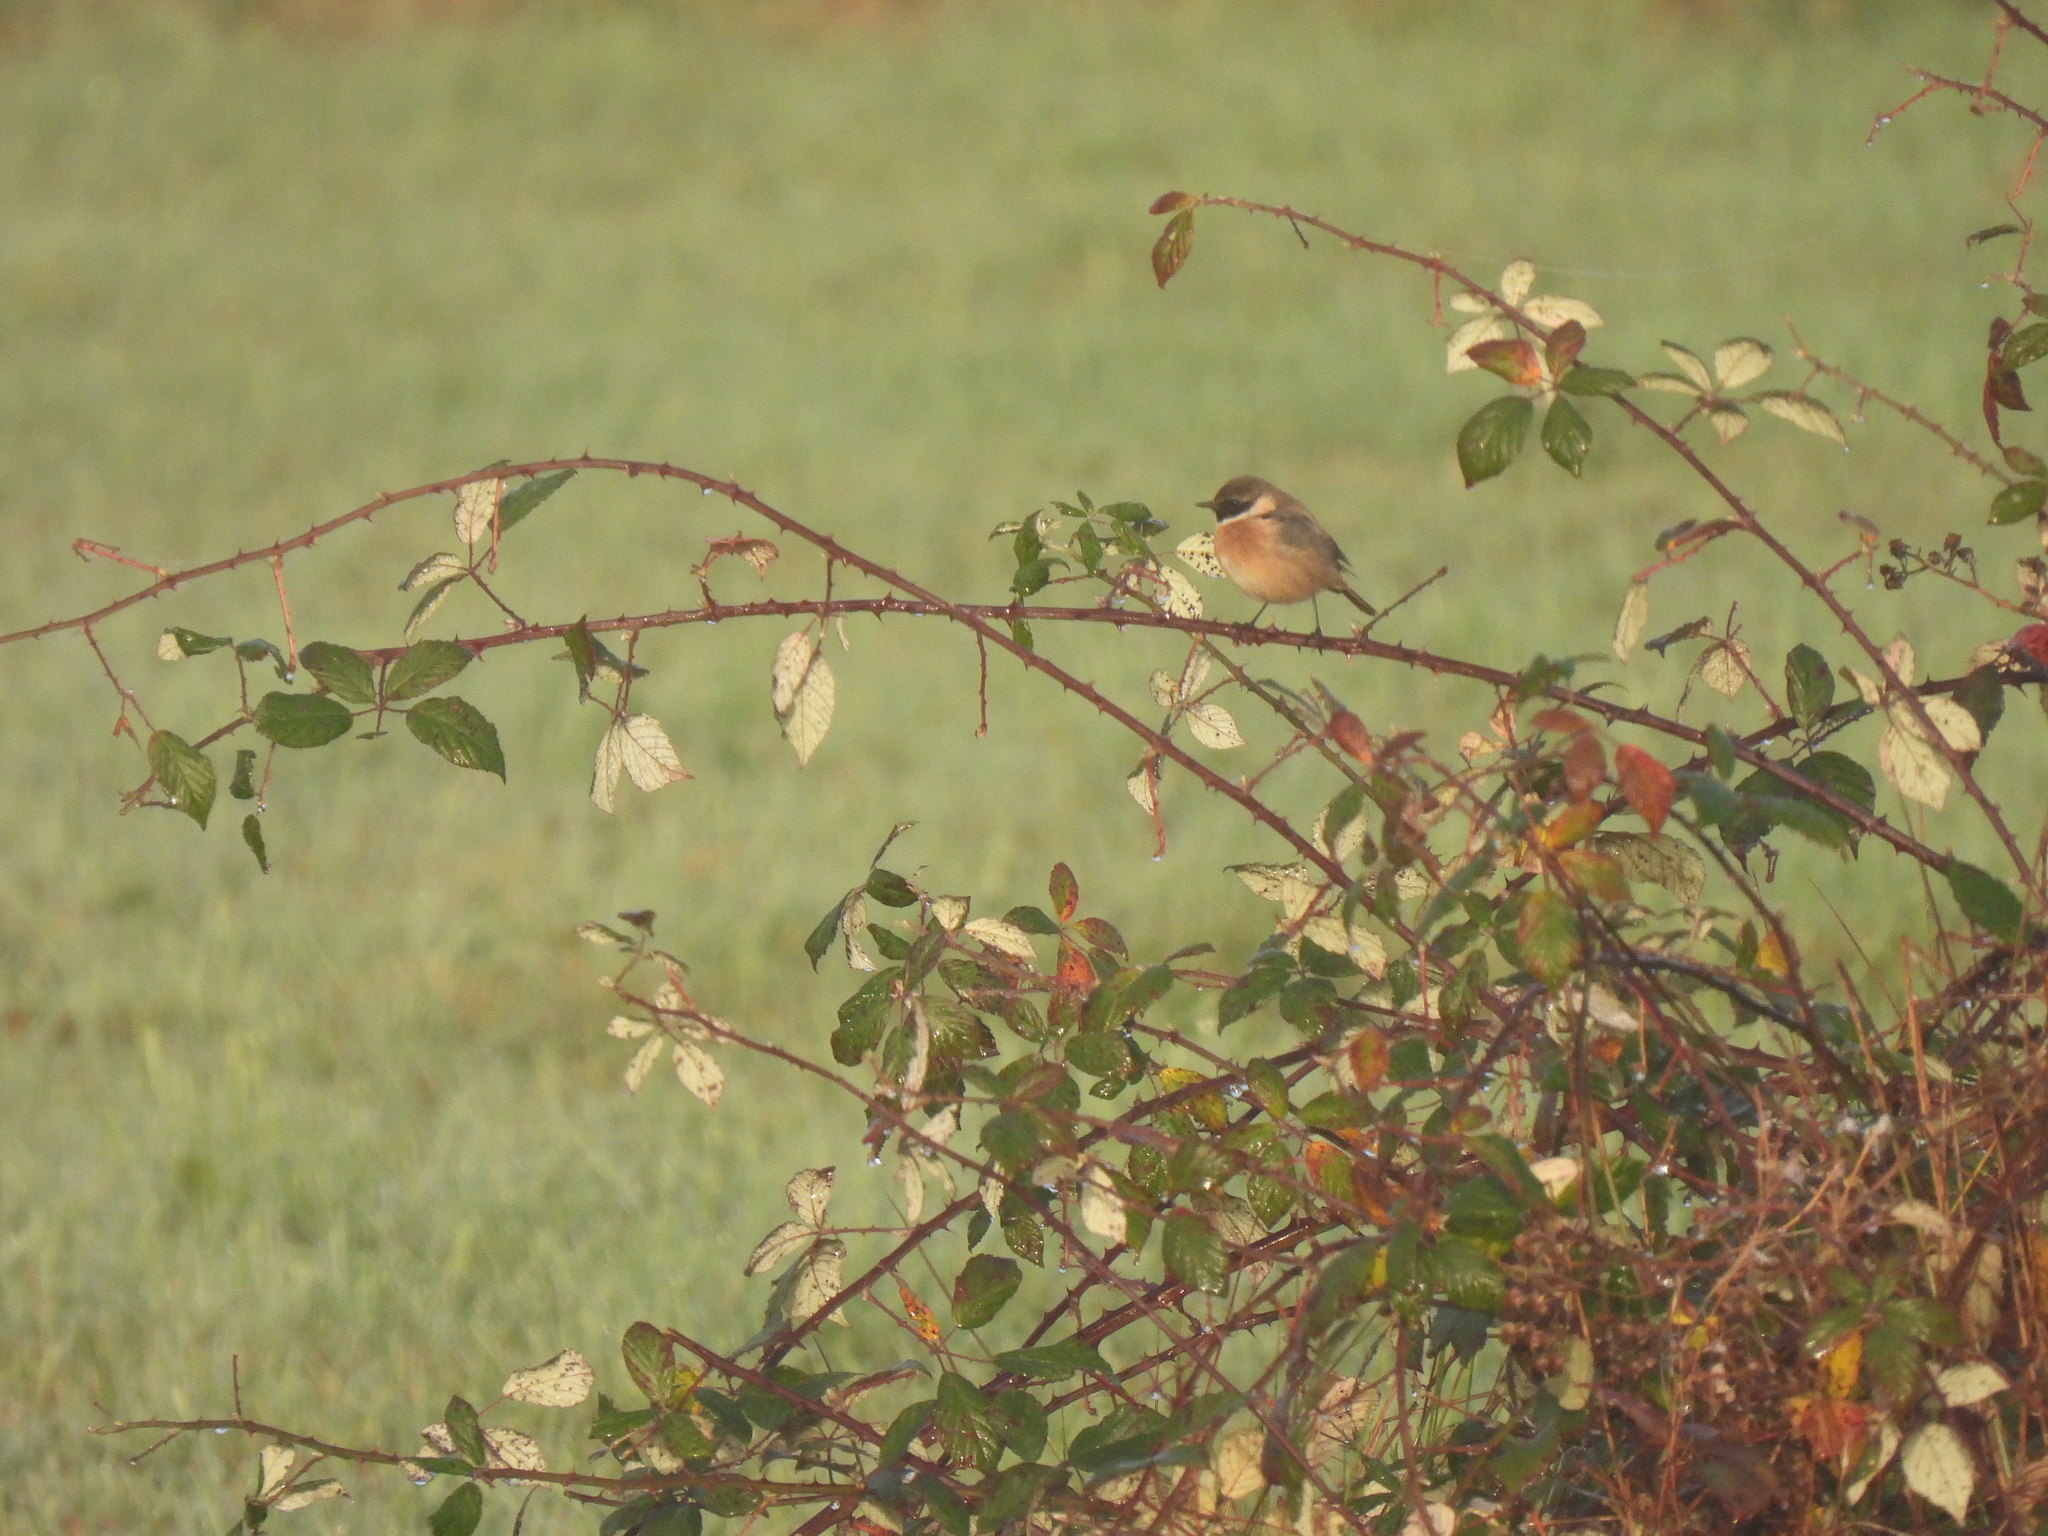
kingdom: Animalia
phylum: Chordata
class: Aves
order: Passeriformes
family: Muscicapidae
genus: Saxicola
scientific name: Saxicola rubicola
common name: European stonechat
